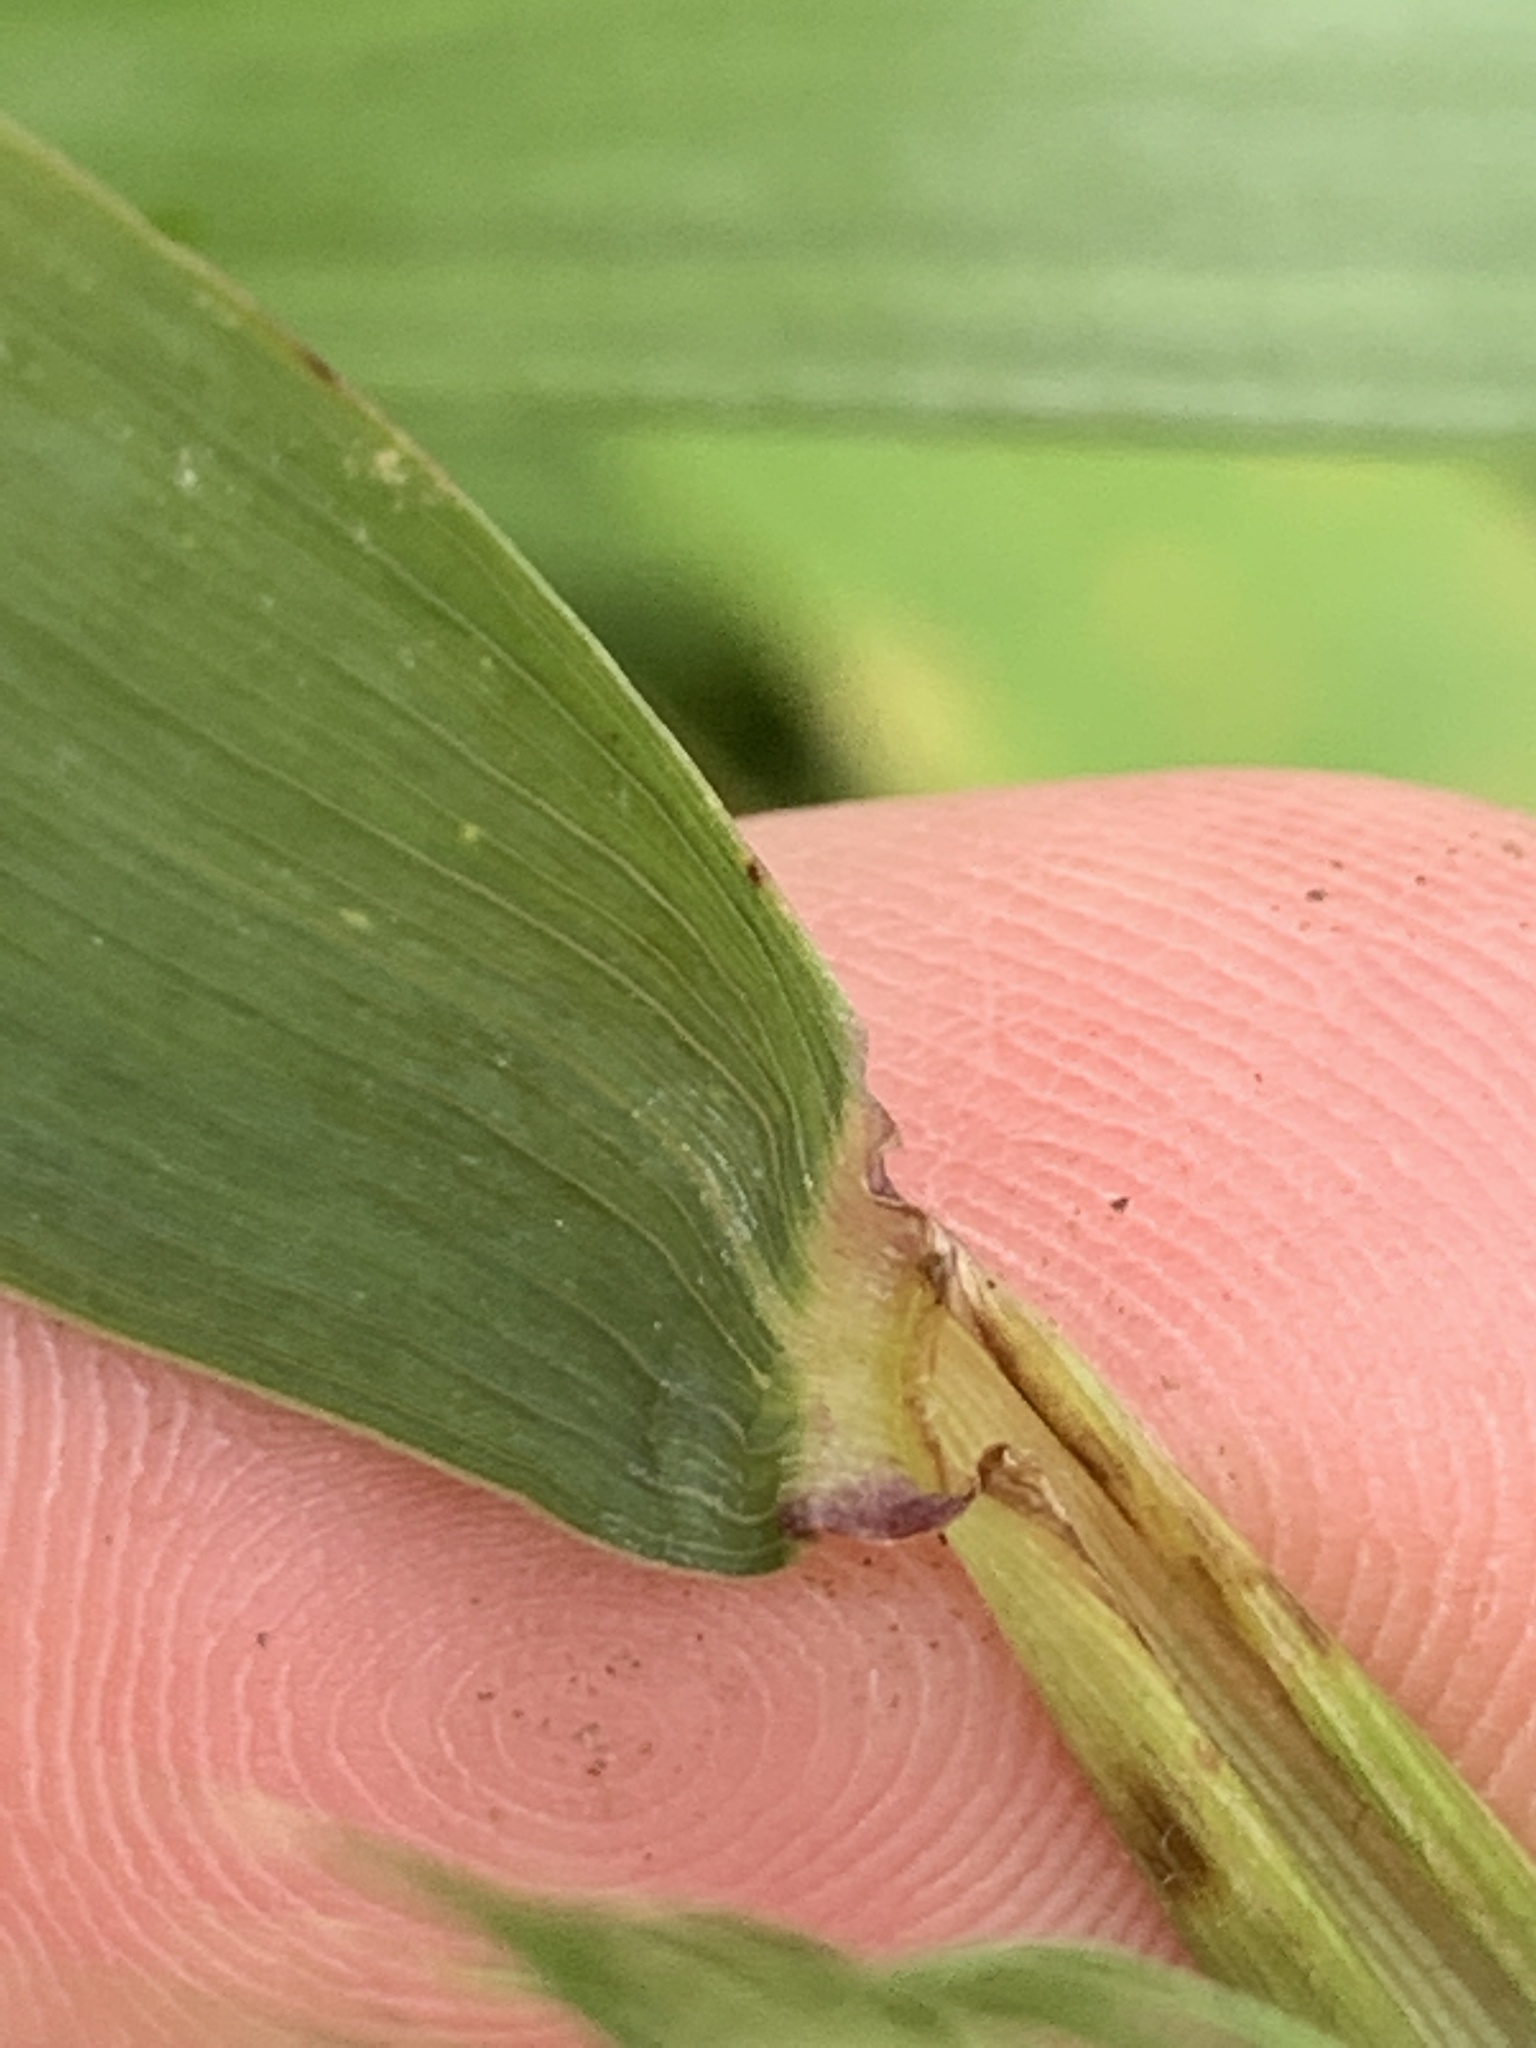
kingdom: Plantae
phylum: Tracheophyta
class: Liliopsida
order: Poales
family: Poaceae
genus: Elymus
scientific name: Elymus virginicus
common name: Common eastern wildrye
